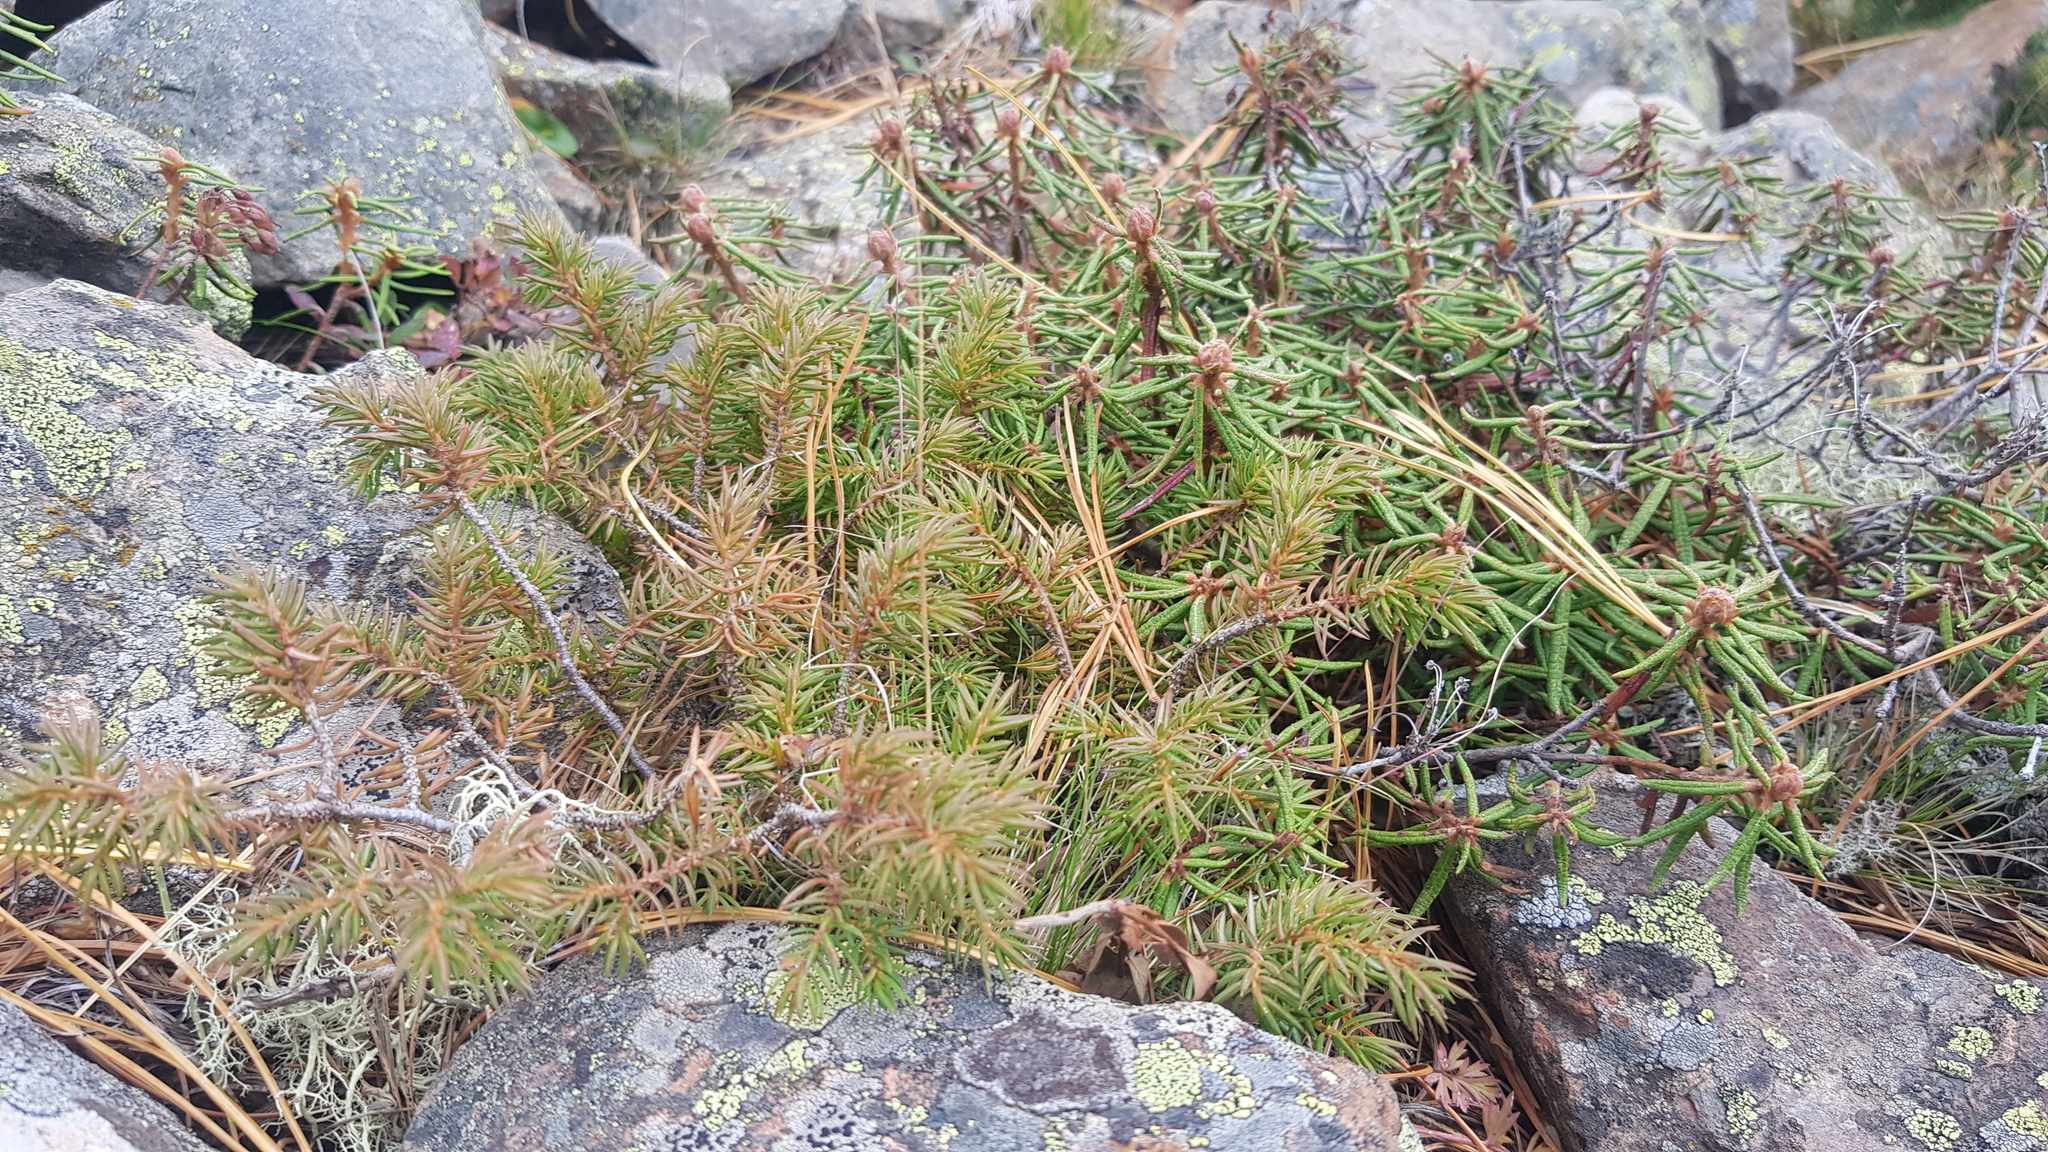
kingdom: Plantae
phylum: Tracheophyta
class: Pinopsida
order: Pinales
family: Cupressaceae
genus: Juniperus
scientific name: Juniperus communis
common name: Common juniper
